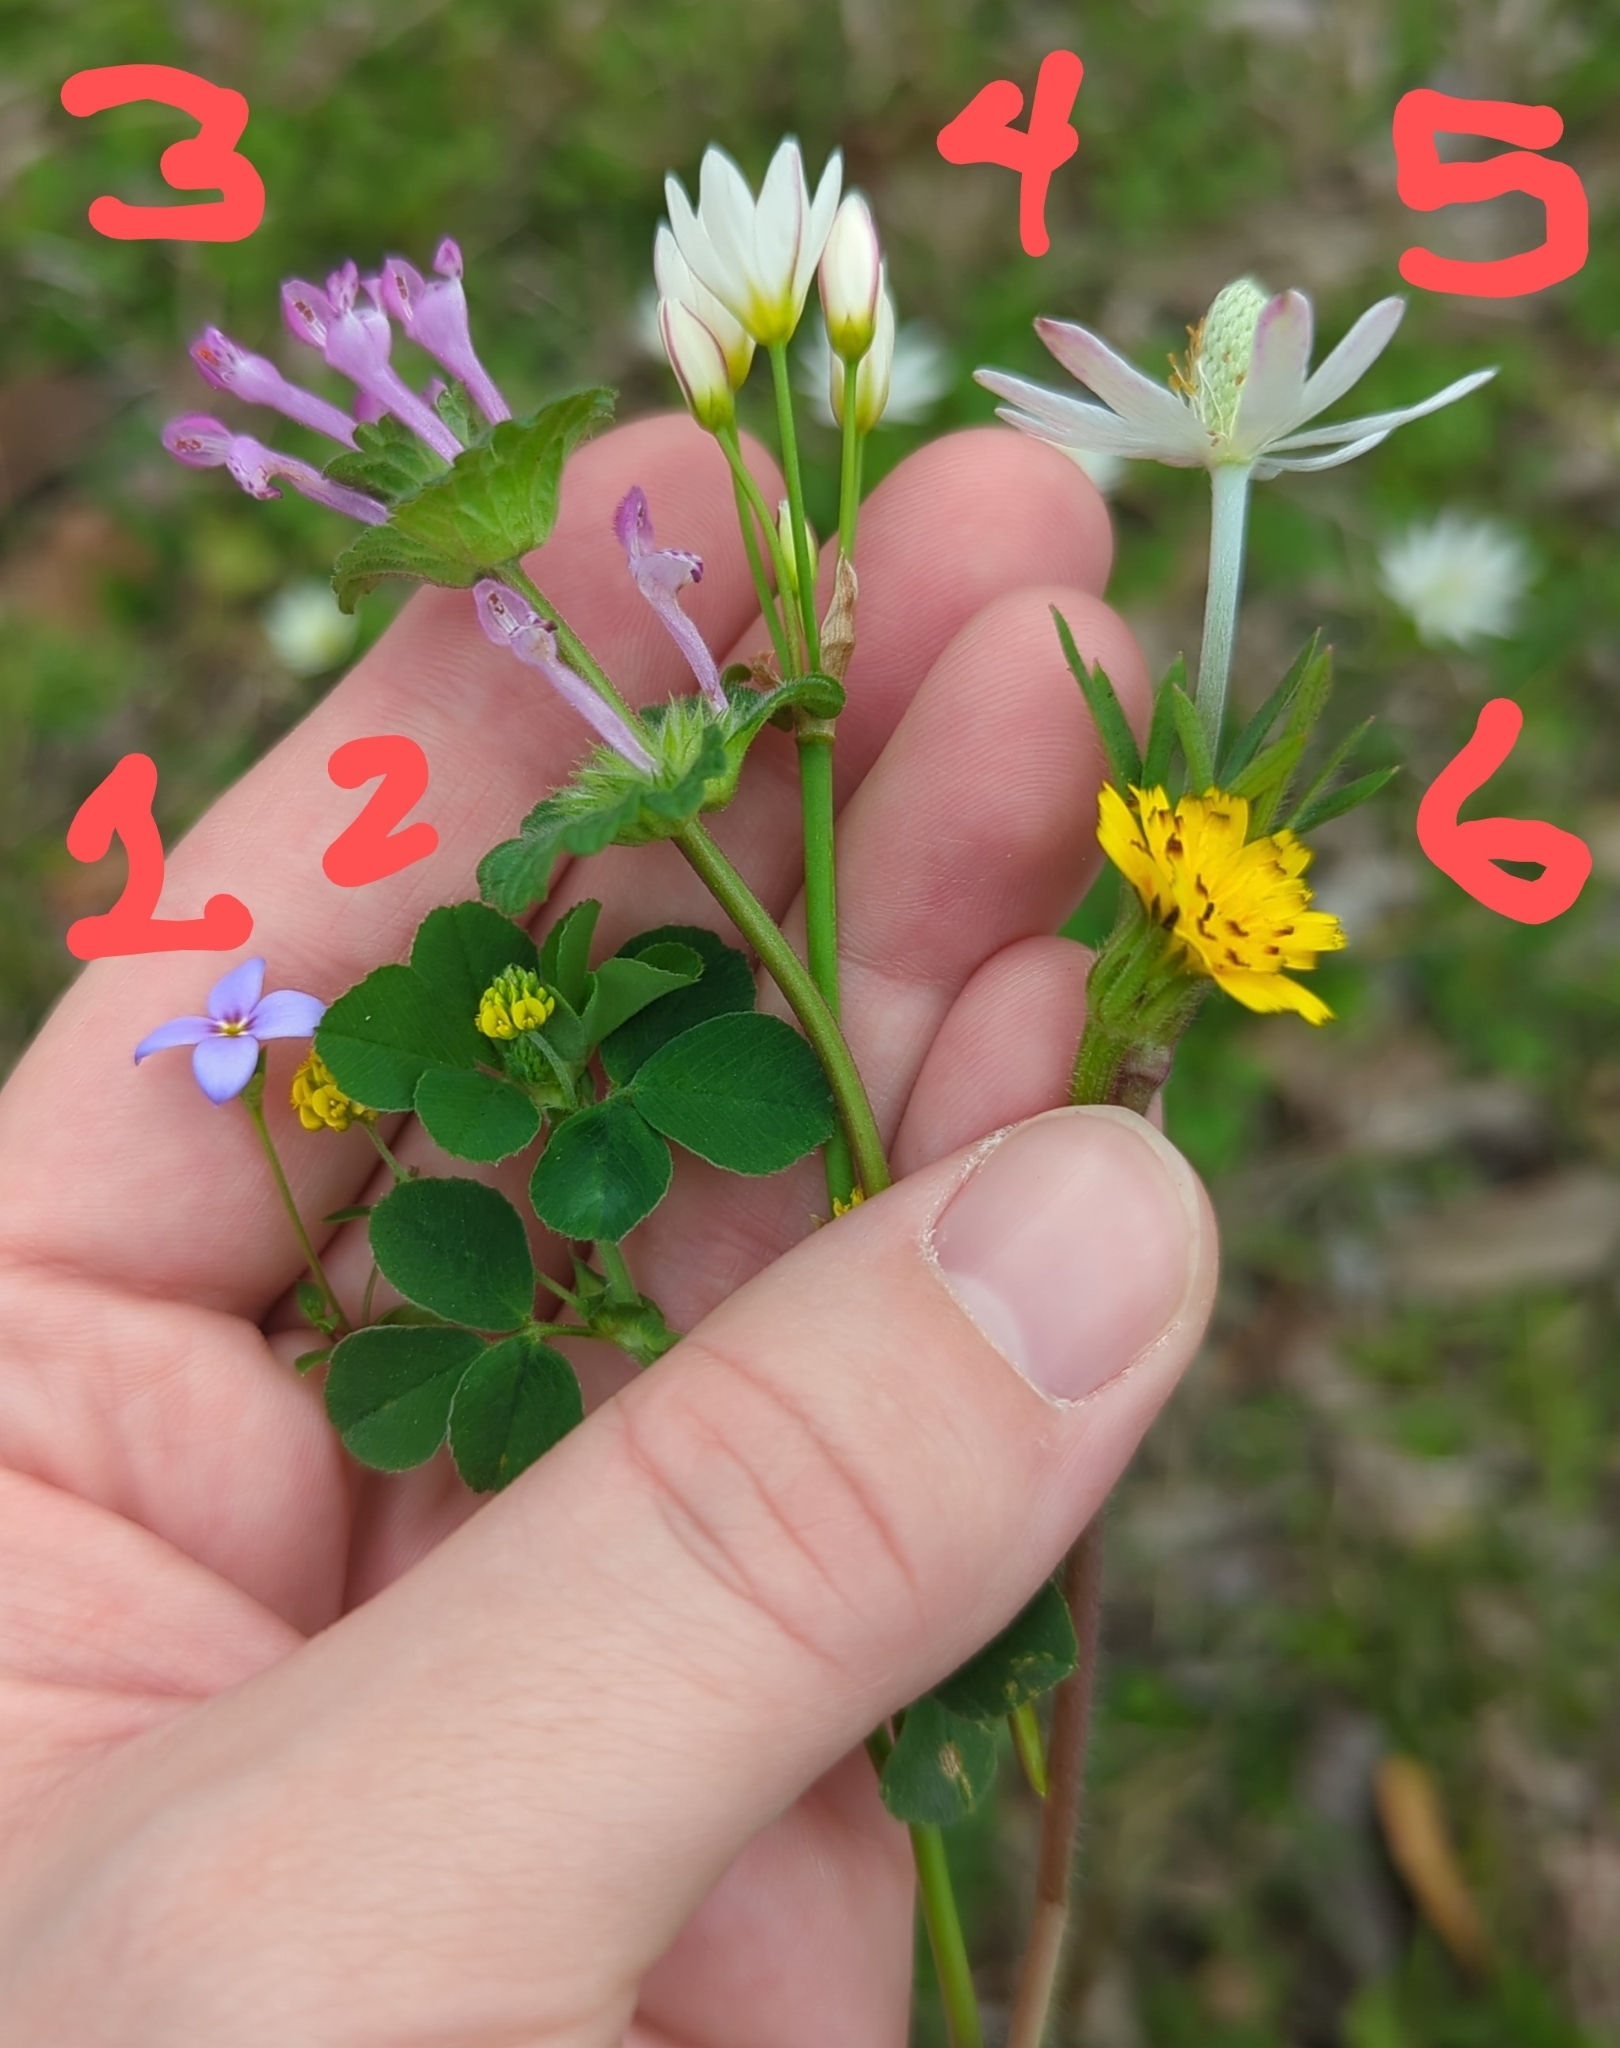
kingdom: Plantae
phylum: Tracheophyta
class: Magnoliopsida
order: Ranunculales
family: Ranunculaceae
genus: Anemone
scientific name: Anemone berlandieri
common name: Ten-petal anemone
